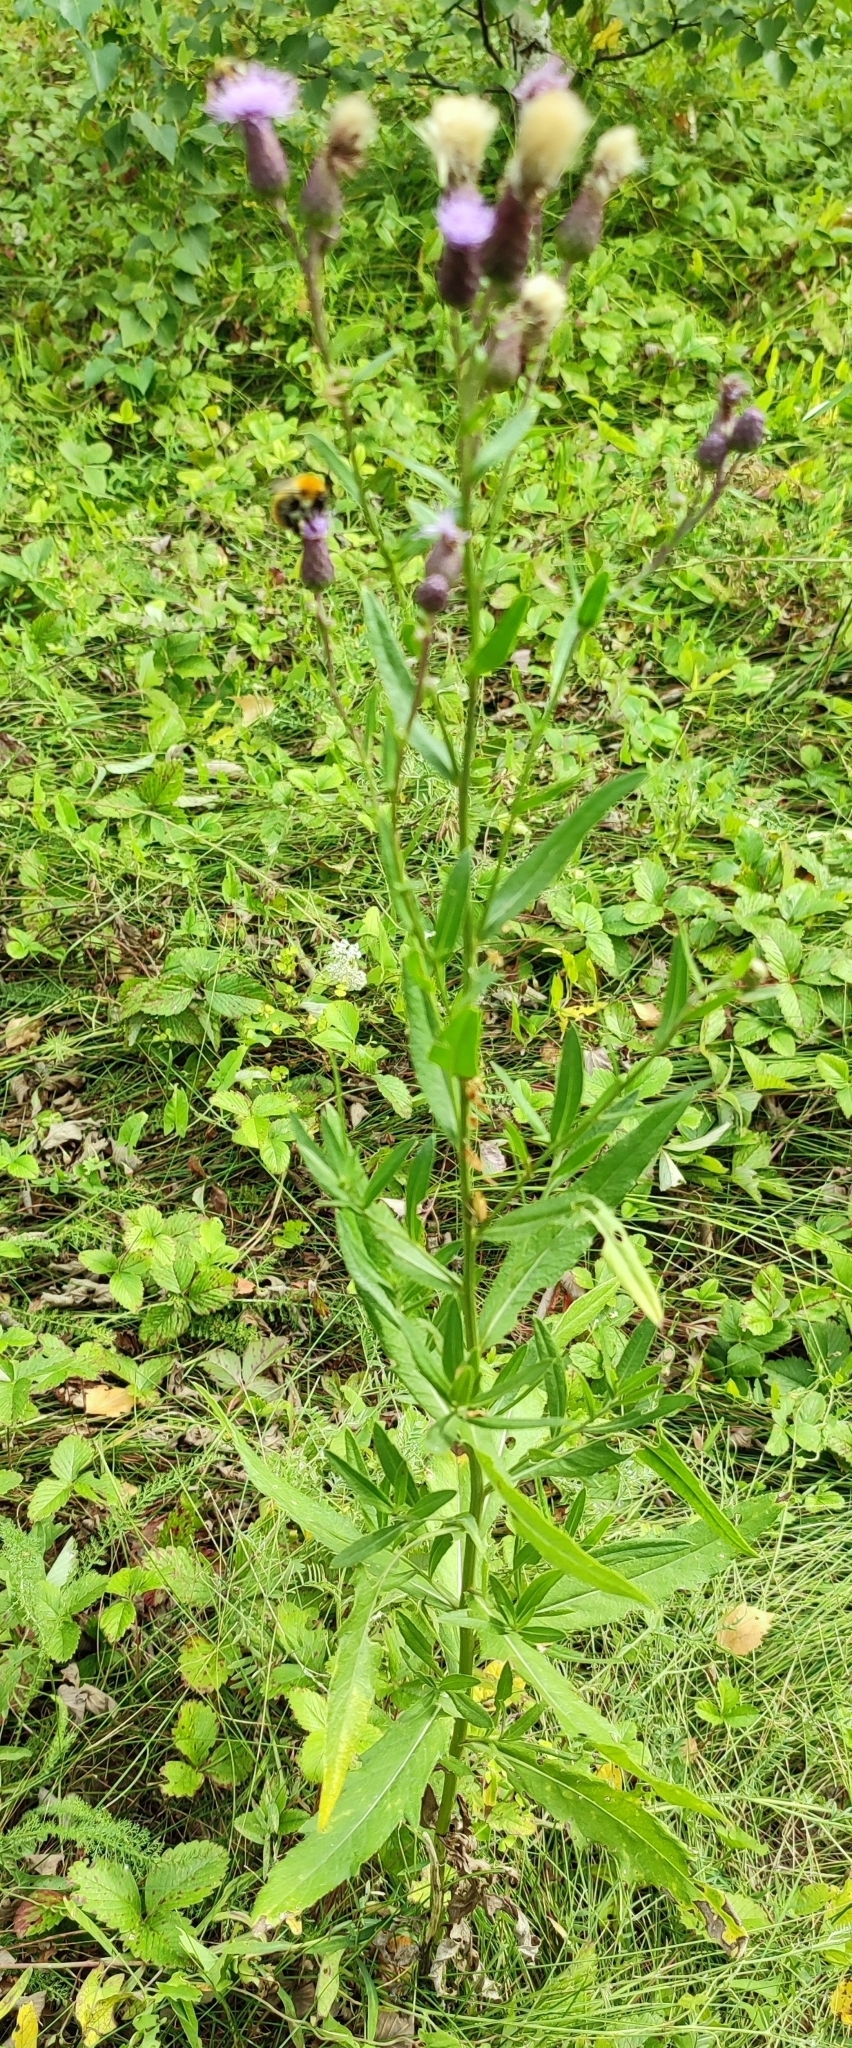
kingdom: Plantae
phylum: Tracheophyta
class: Magnoliopsida
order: Asterales
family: Asteraceae
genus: Cirsium
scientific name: Cirsium arvense
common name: Creeping thistle
